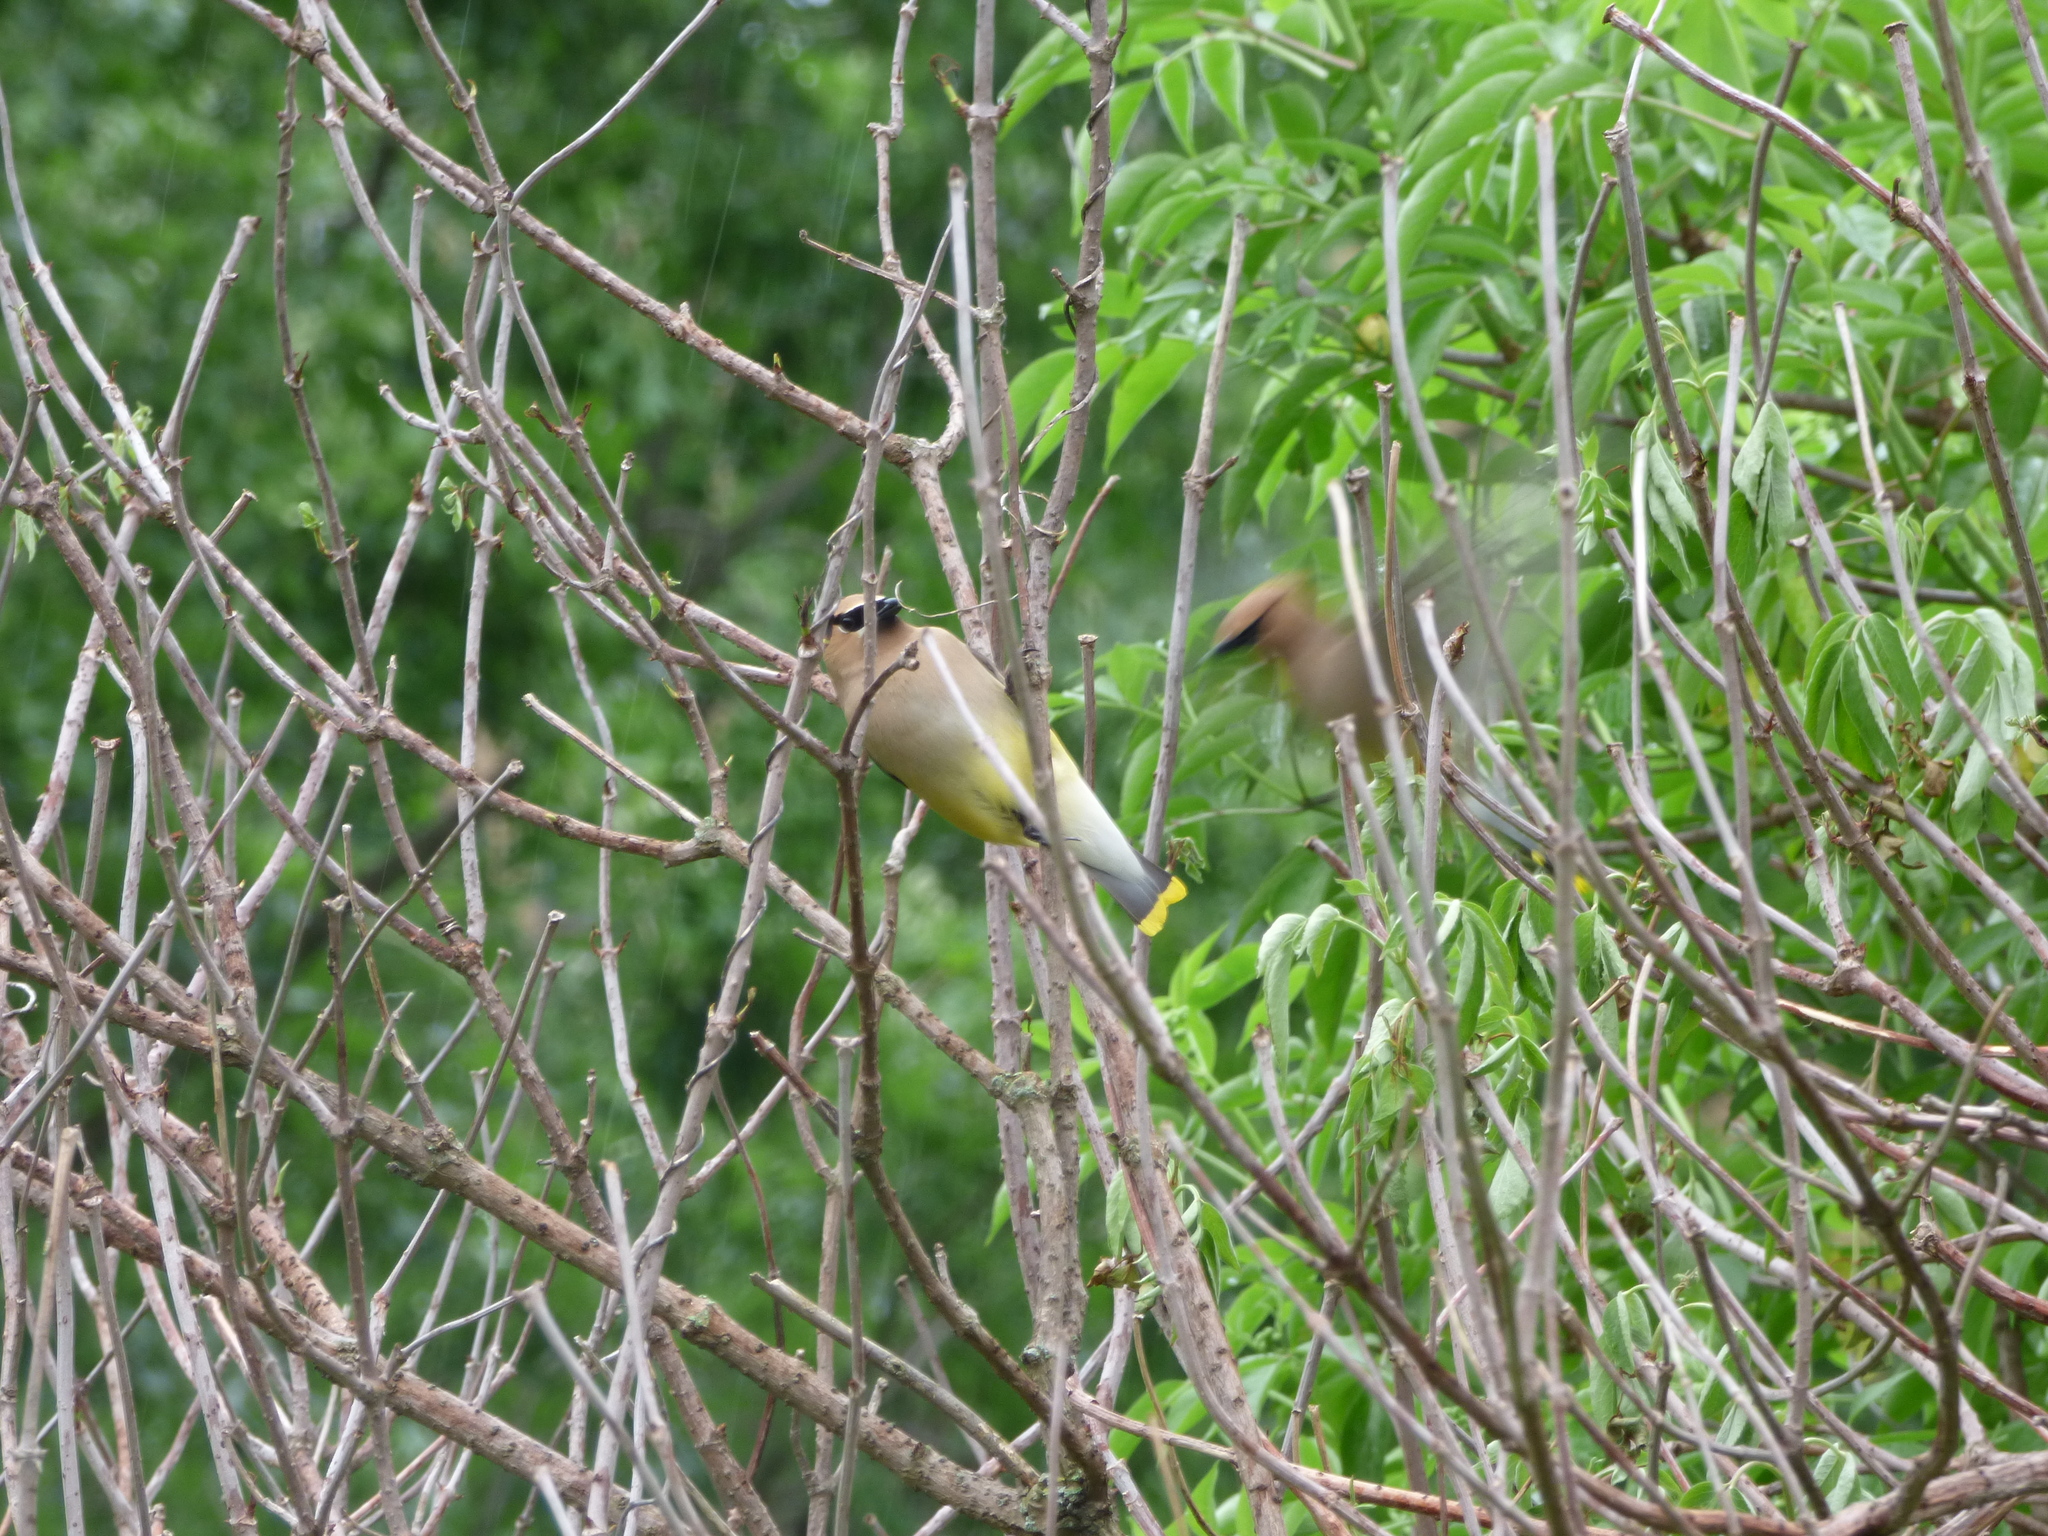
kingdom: Animalia
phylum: Chordata
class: Aves
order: Passeriformes
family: Bombycillidae
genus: Bombycilla
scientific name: Bombycilla cedrorum
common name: Cedar waxwing
